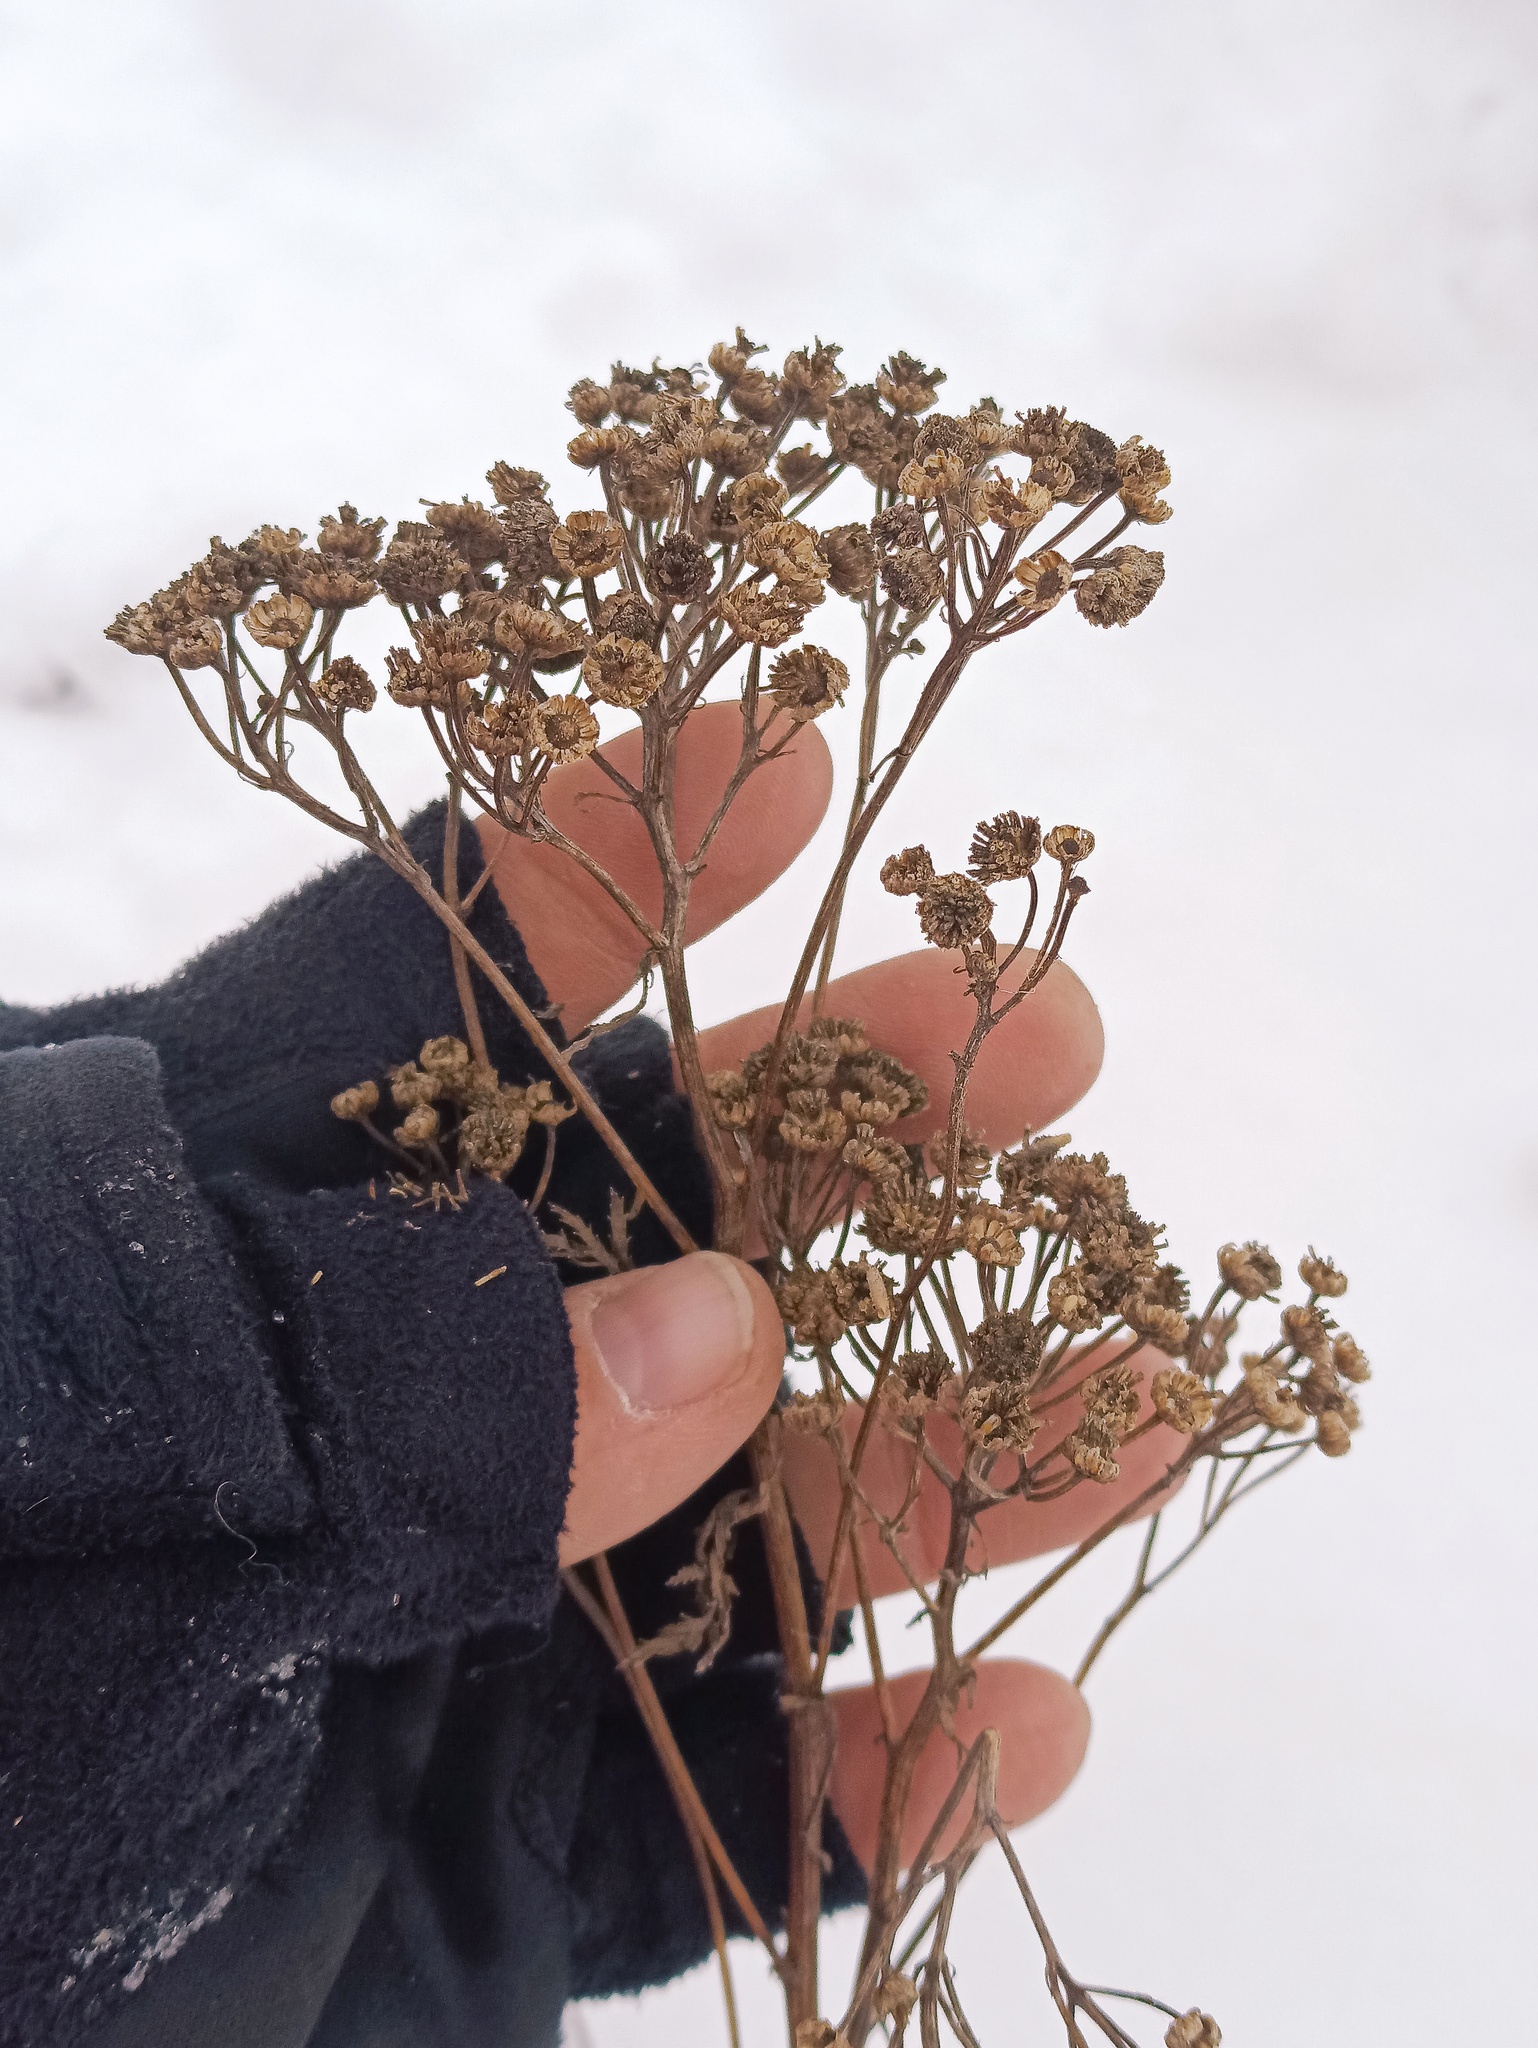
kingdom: Plantae
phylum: Tracheophyta
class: Magnoliopsida
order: Asterales
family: Asteraceae
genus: Tanacetum
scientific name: Tanacetum vulgare
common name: Common tansy
